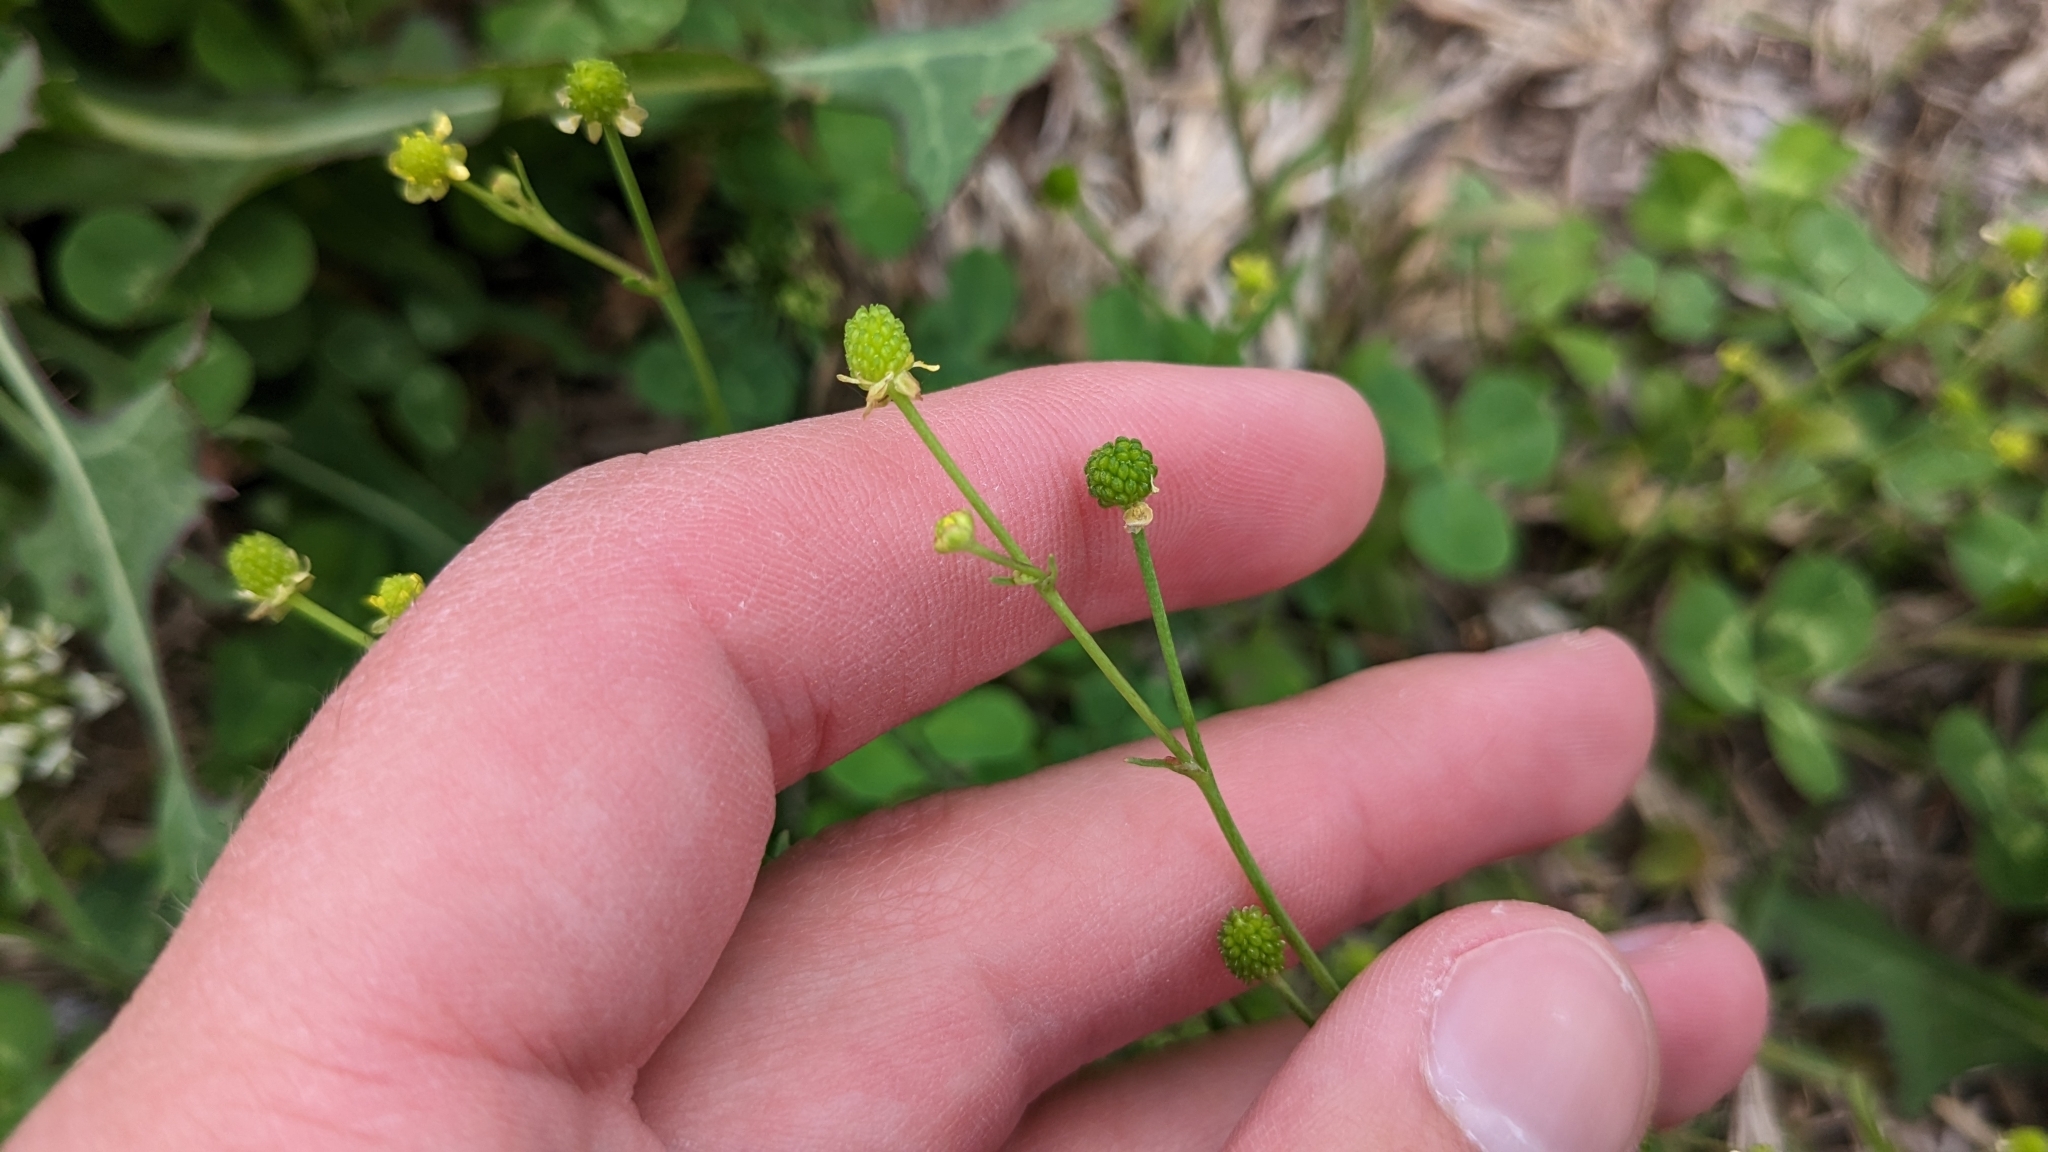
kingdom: Plantae
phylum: Tracheophyta
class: Magnoliopsida
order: Ranunculales
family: Ranunculaceae
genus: Ranunculus
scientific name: Ranunculus pusillus
